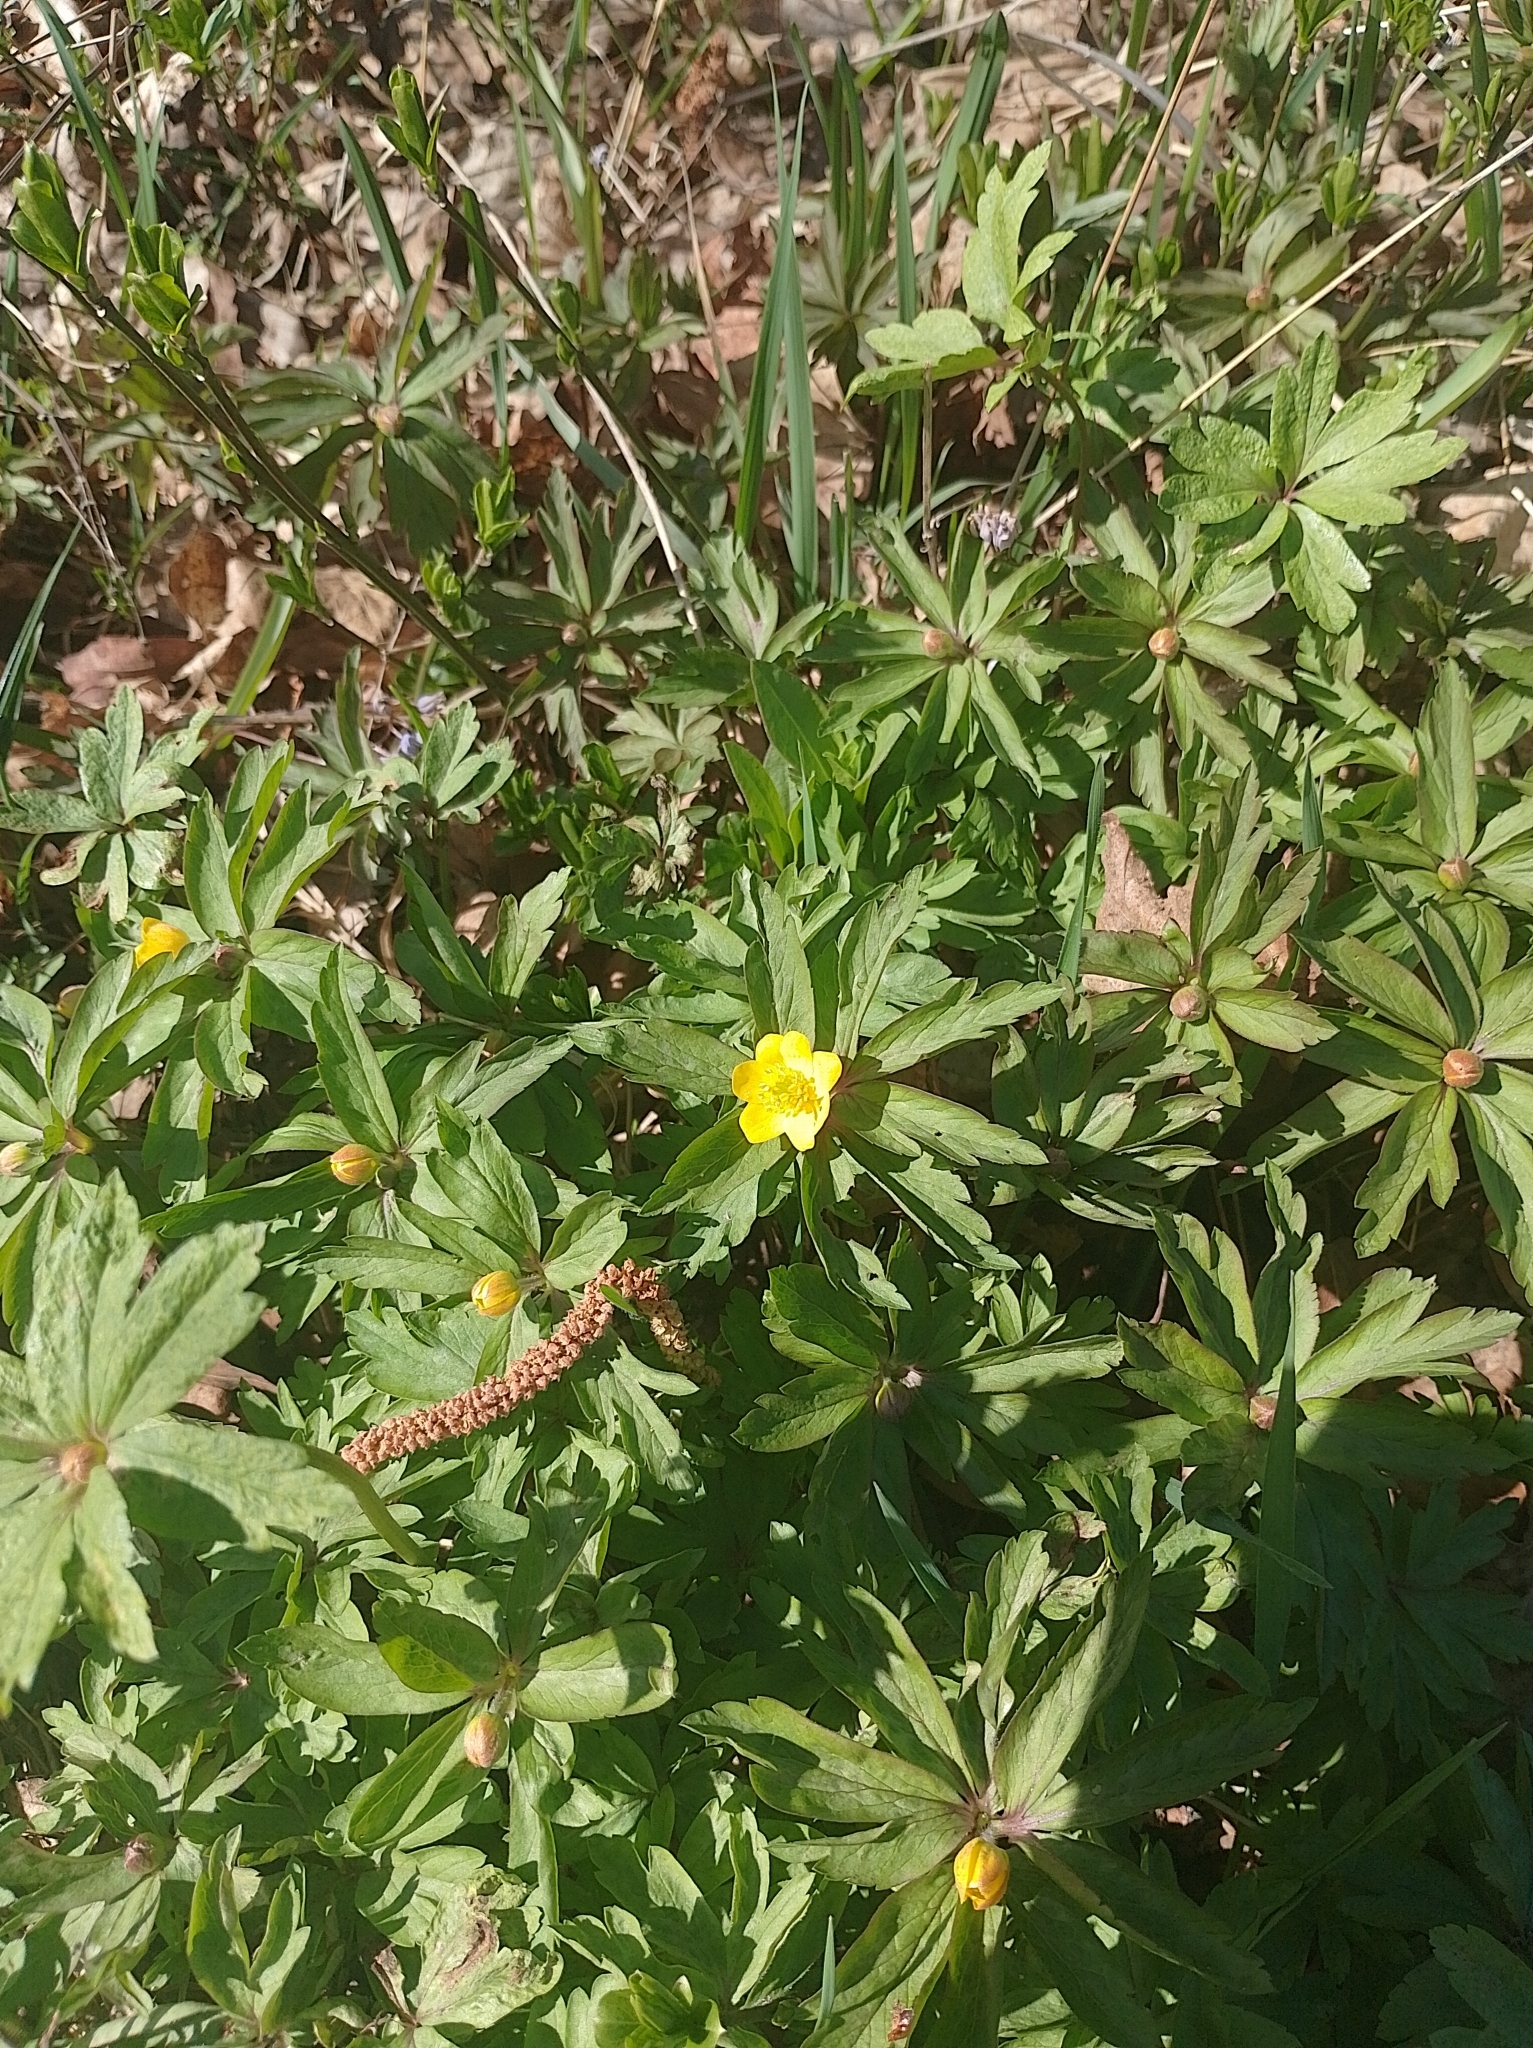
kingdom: Plantae
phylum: Tracheophyta
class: Magnoliopsida
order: Ranunculales
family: Ranunculaceae
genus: Anemone
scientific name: Anemone ranunculoides
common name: Yellow anemone
